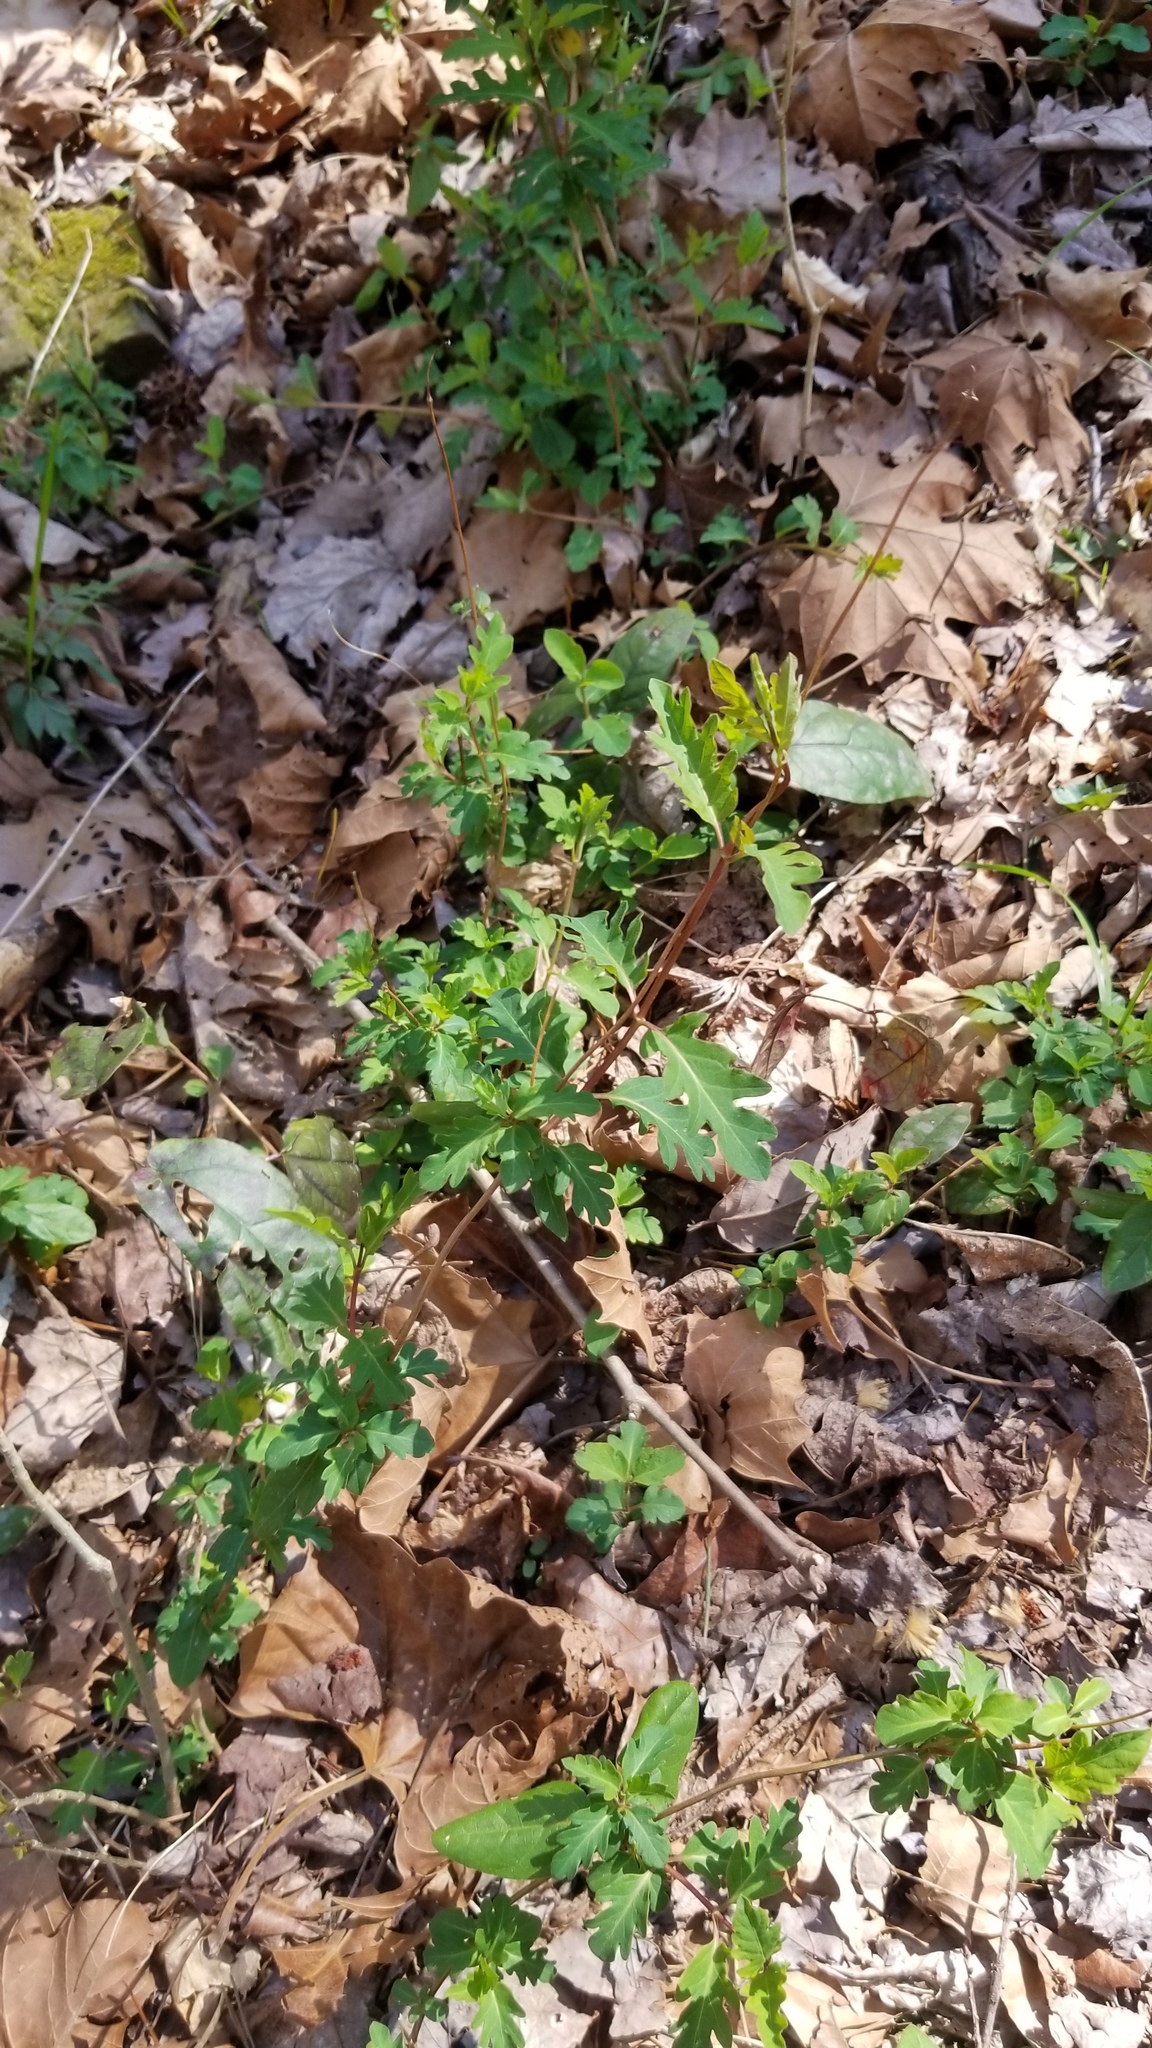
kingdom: Plantae
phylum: Tracheophyta
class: Magnoliopsida
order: Dipsacales
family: Caprifoliaceae
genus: Lonicera
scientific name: Lonicera japonica
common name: Japanese honeysuckle
